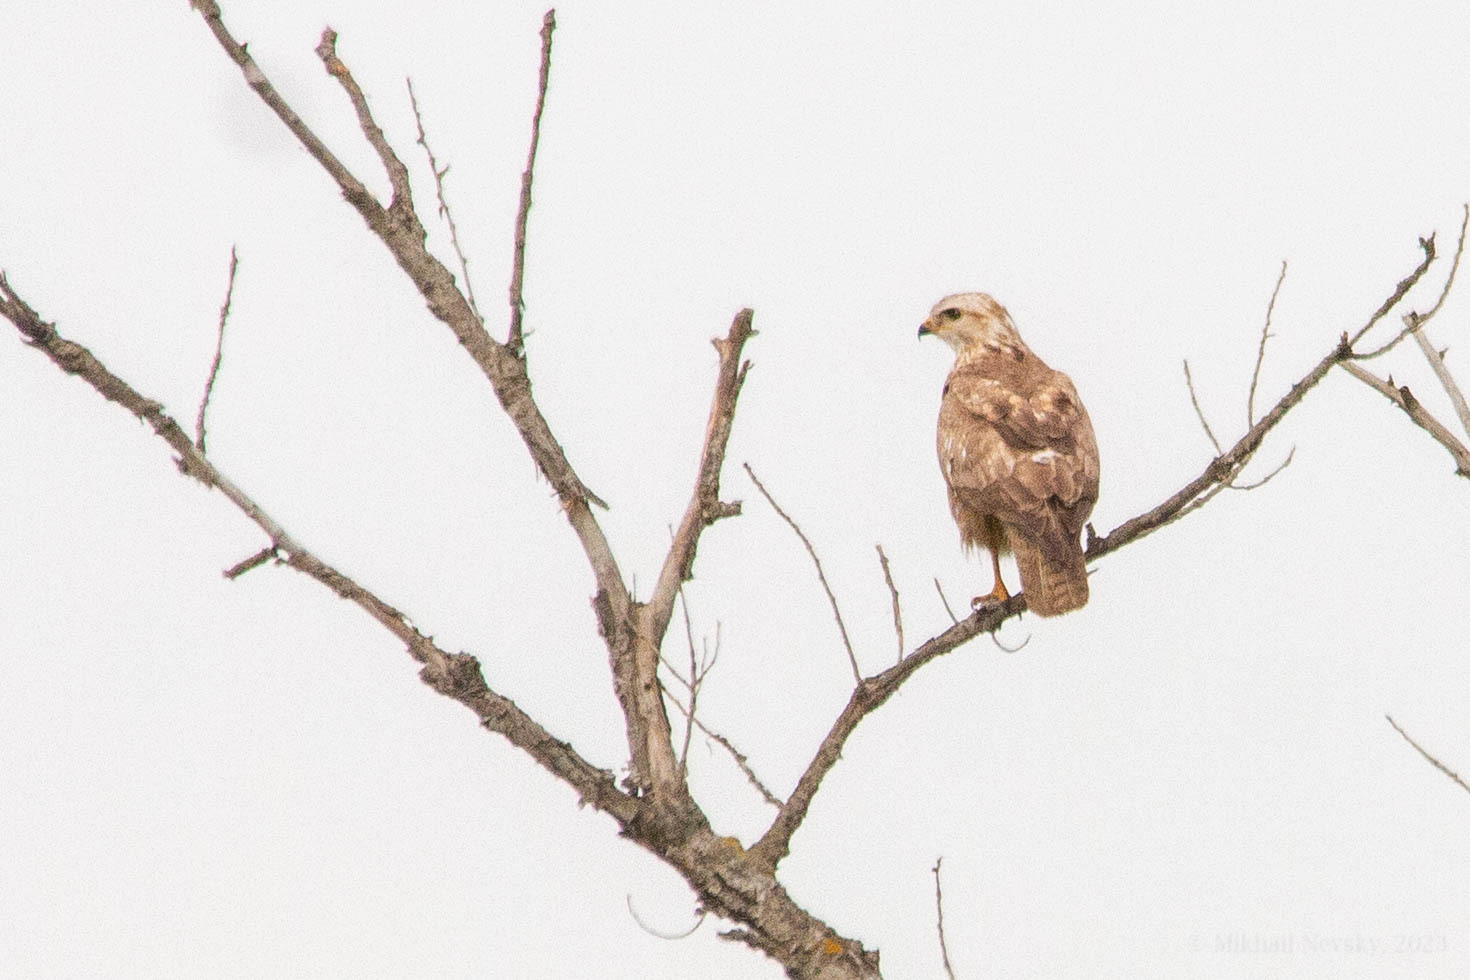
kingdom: Animalia
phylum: Chordata
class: Aves
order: Accipitriformes
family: Accipitridae
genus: Buteo
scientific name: Buteo buteo
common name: Common buzzard
